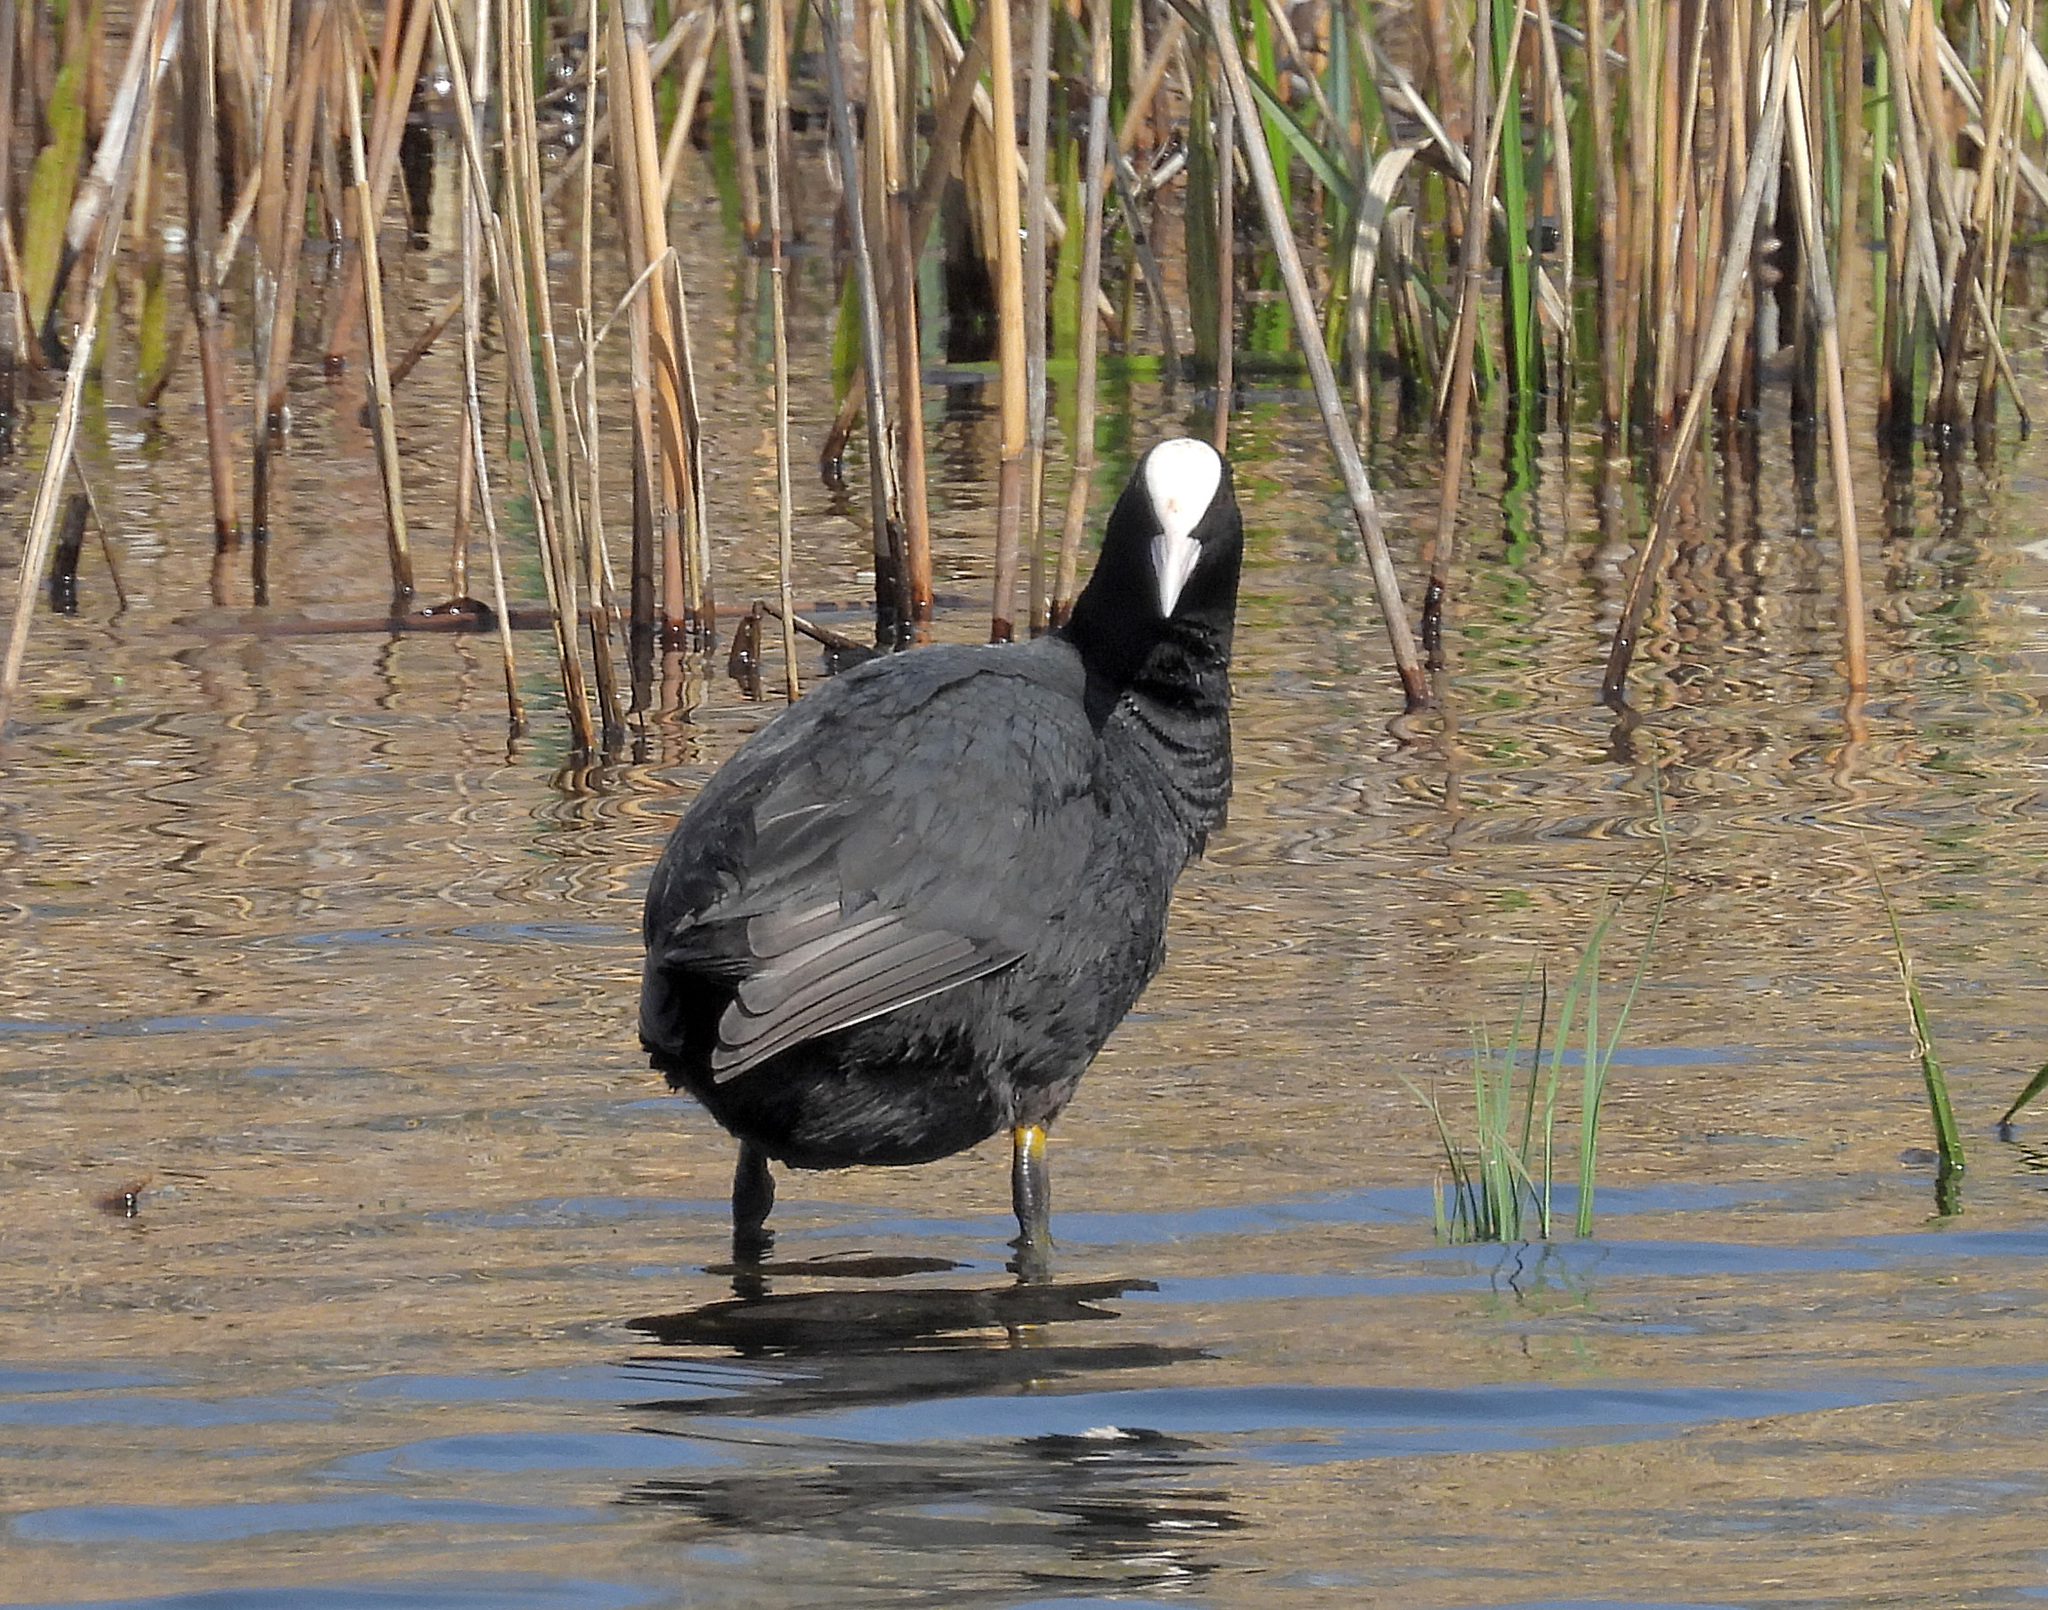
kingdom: Animalia
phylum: Chordata
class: Aves
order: Gruiformes
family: Rallidae
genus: Fulica
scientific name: Fulica atra
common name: Eurasian coot
